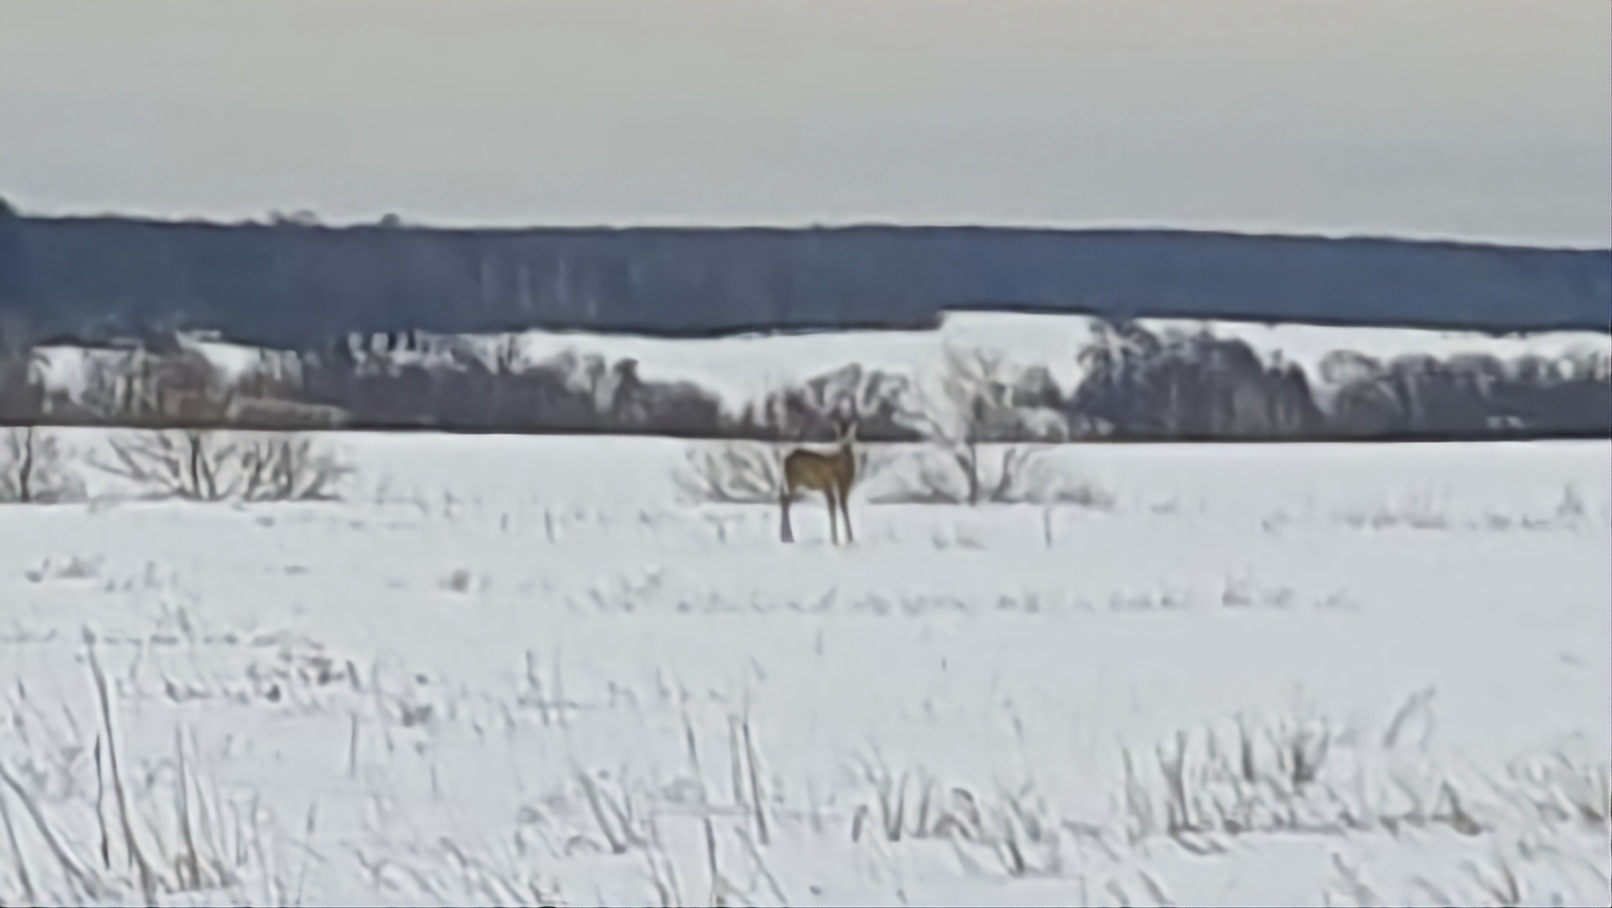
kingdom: Animalia
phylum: Chordata
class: Mammalia
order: Artiodactyla
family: Cervidae
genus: Capreolus
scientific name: Capreolus pygargus
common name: Siberian roe
